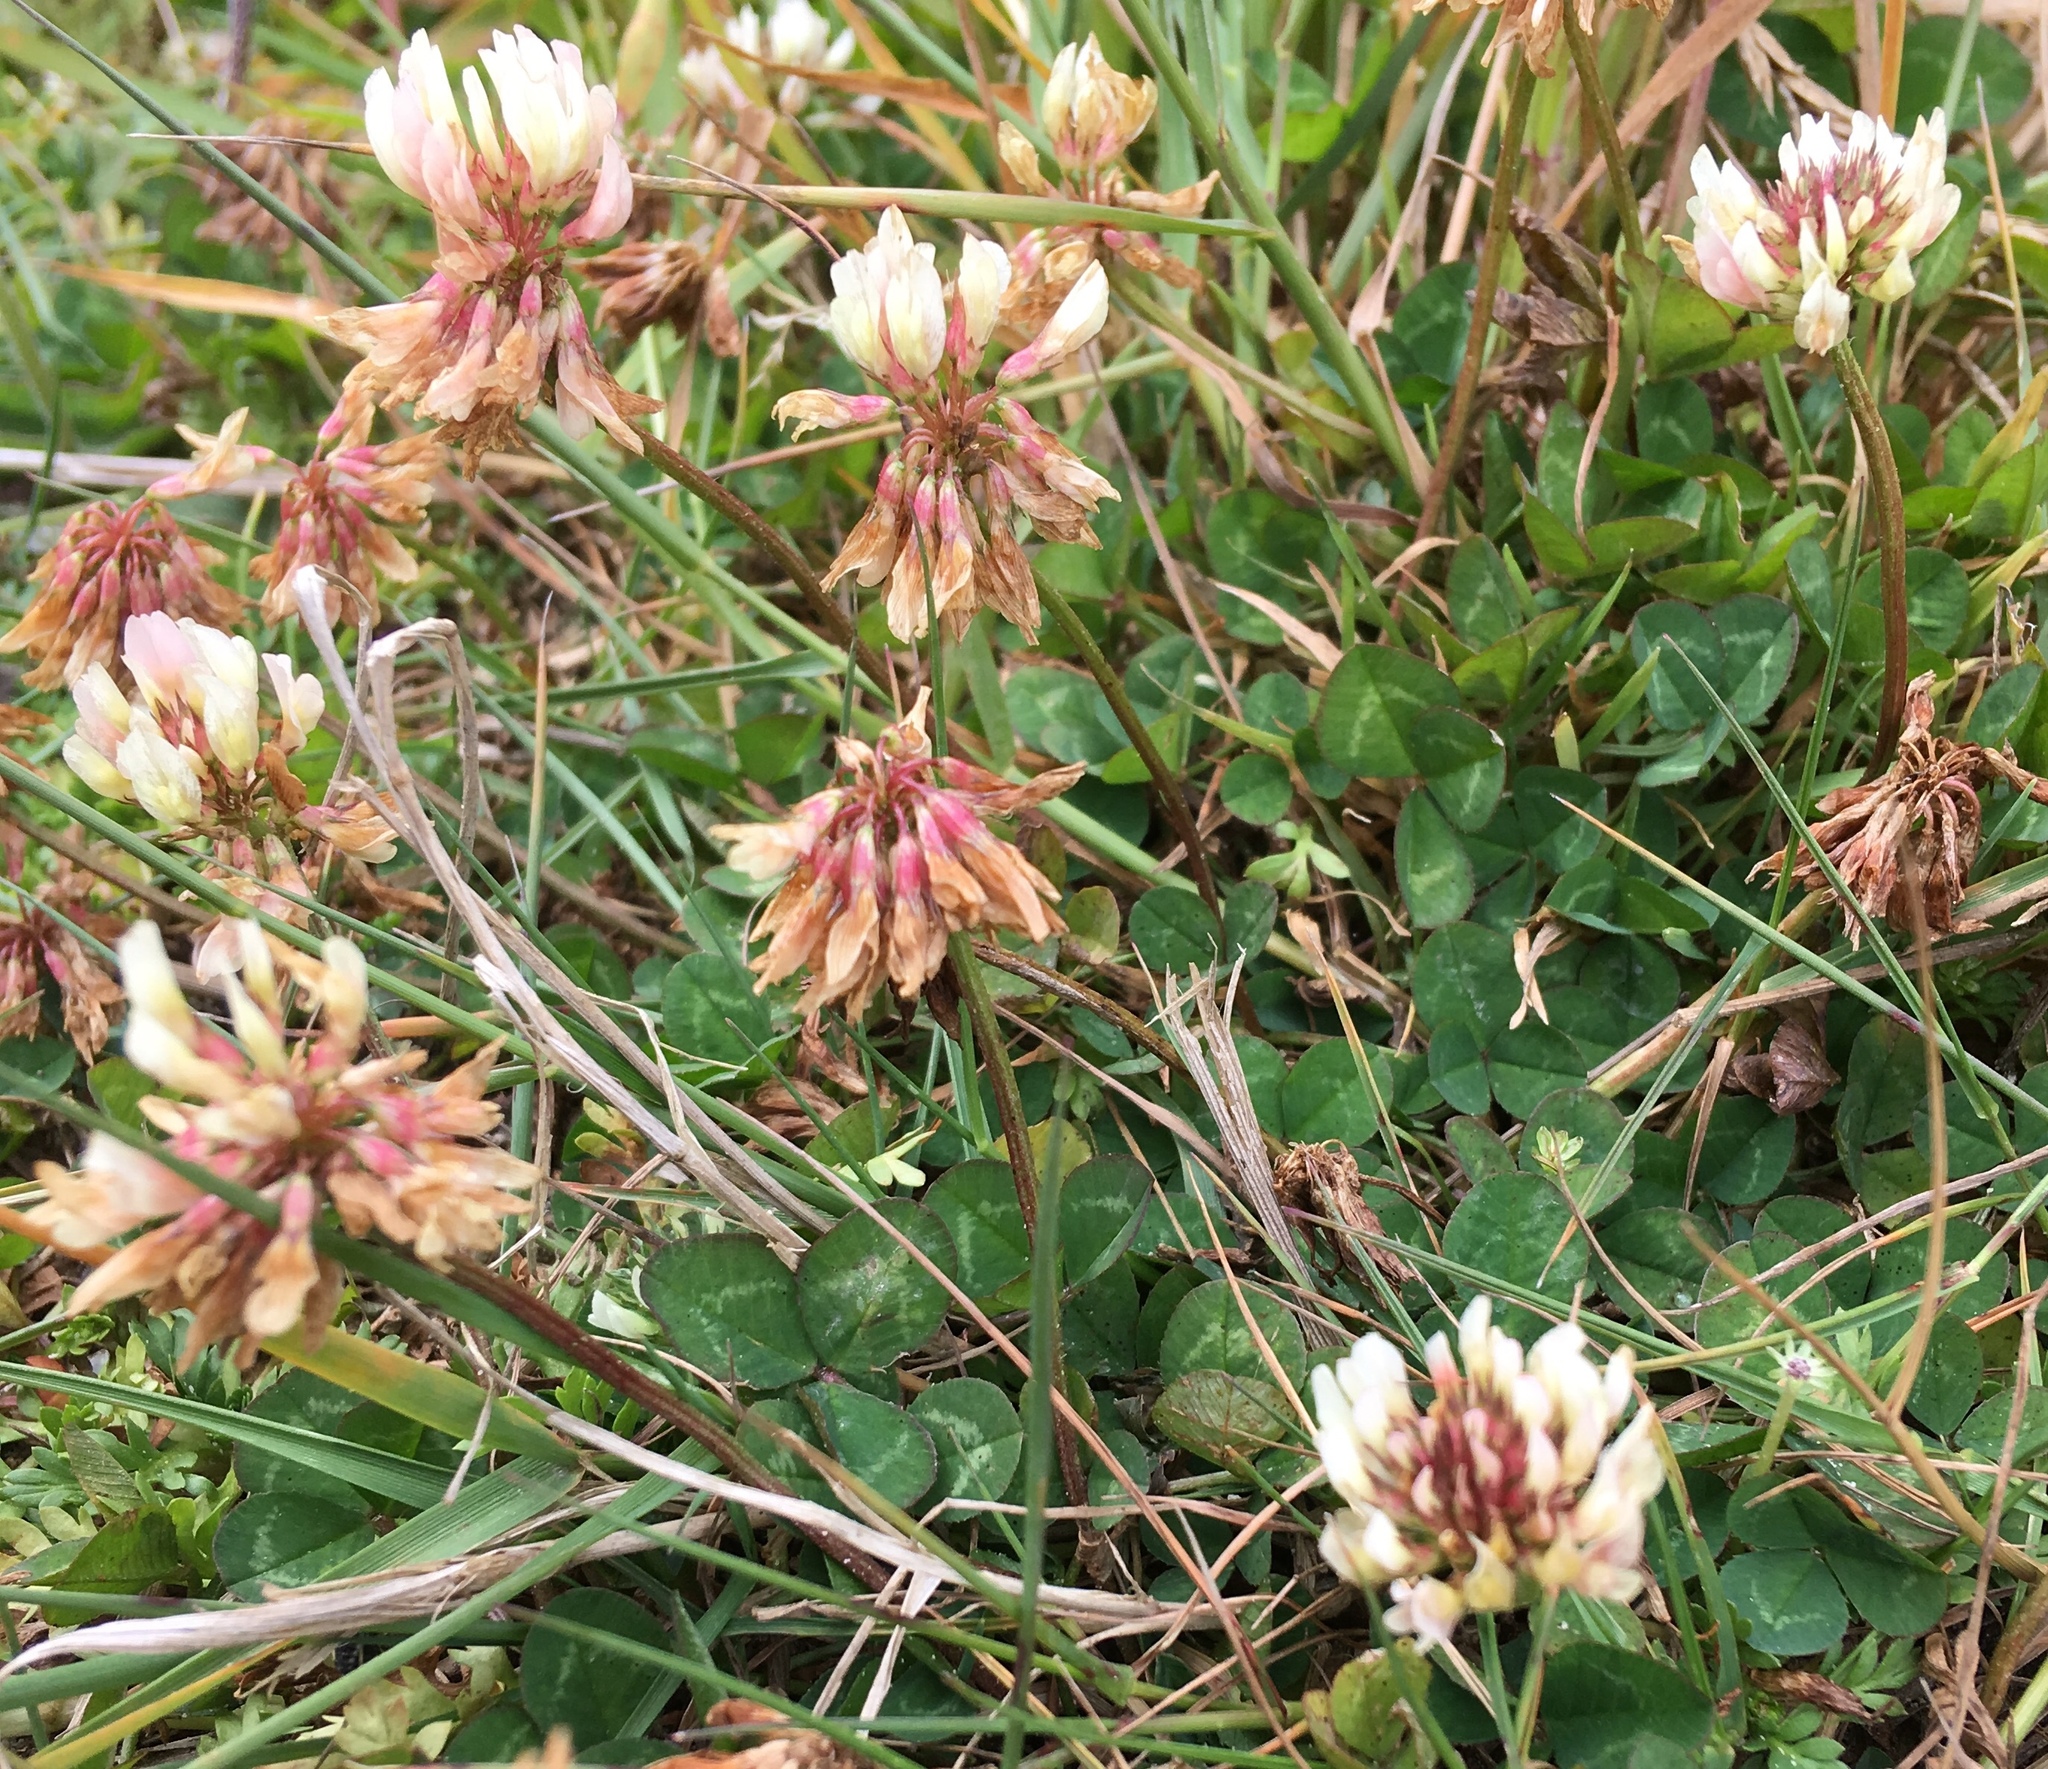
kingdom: Plantae
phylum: Tracheophyta
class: Magnoliopsida
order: Fabales
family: Fabaceae
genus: Trifolium
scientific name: Trifolium repens
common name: White clover
